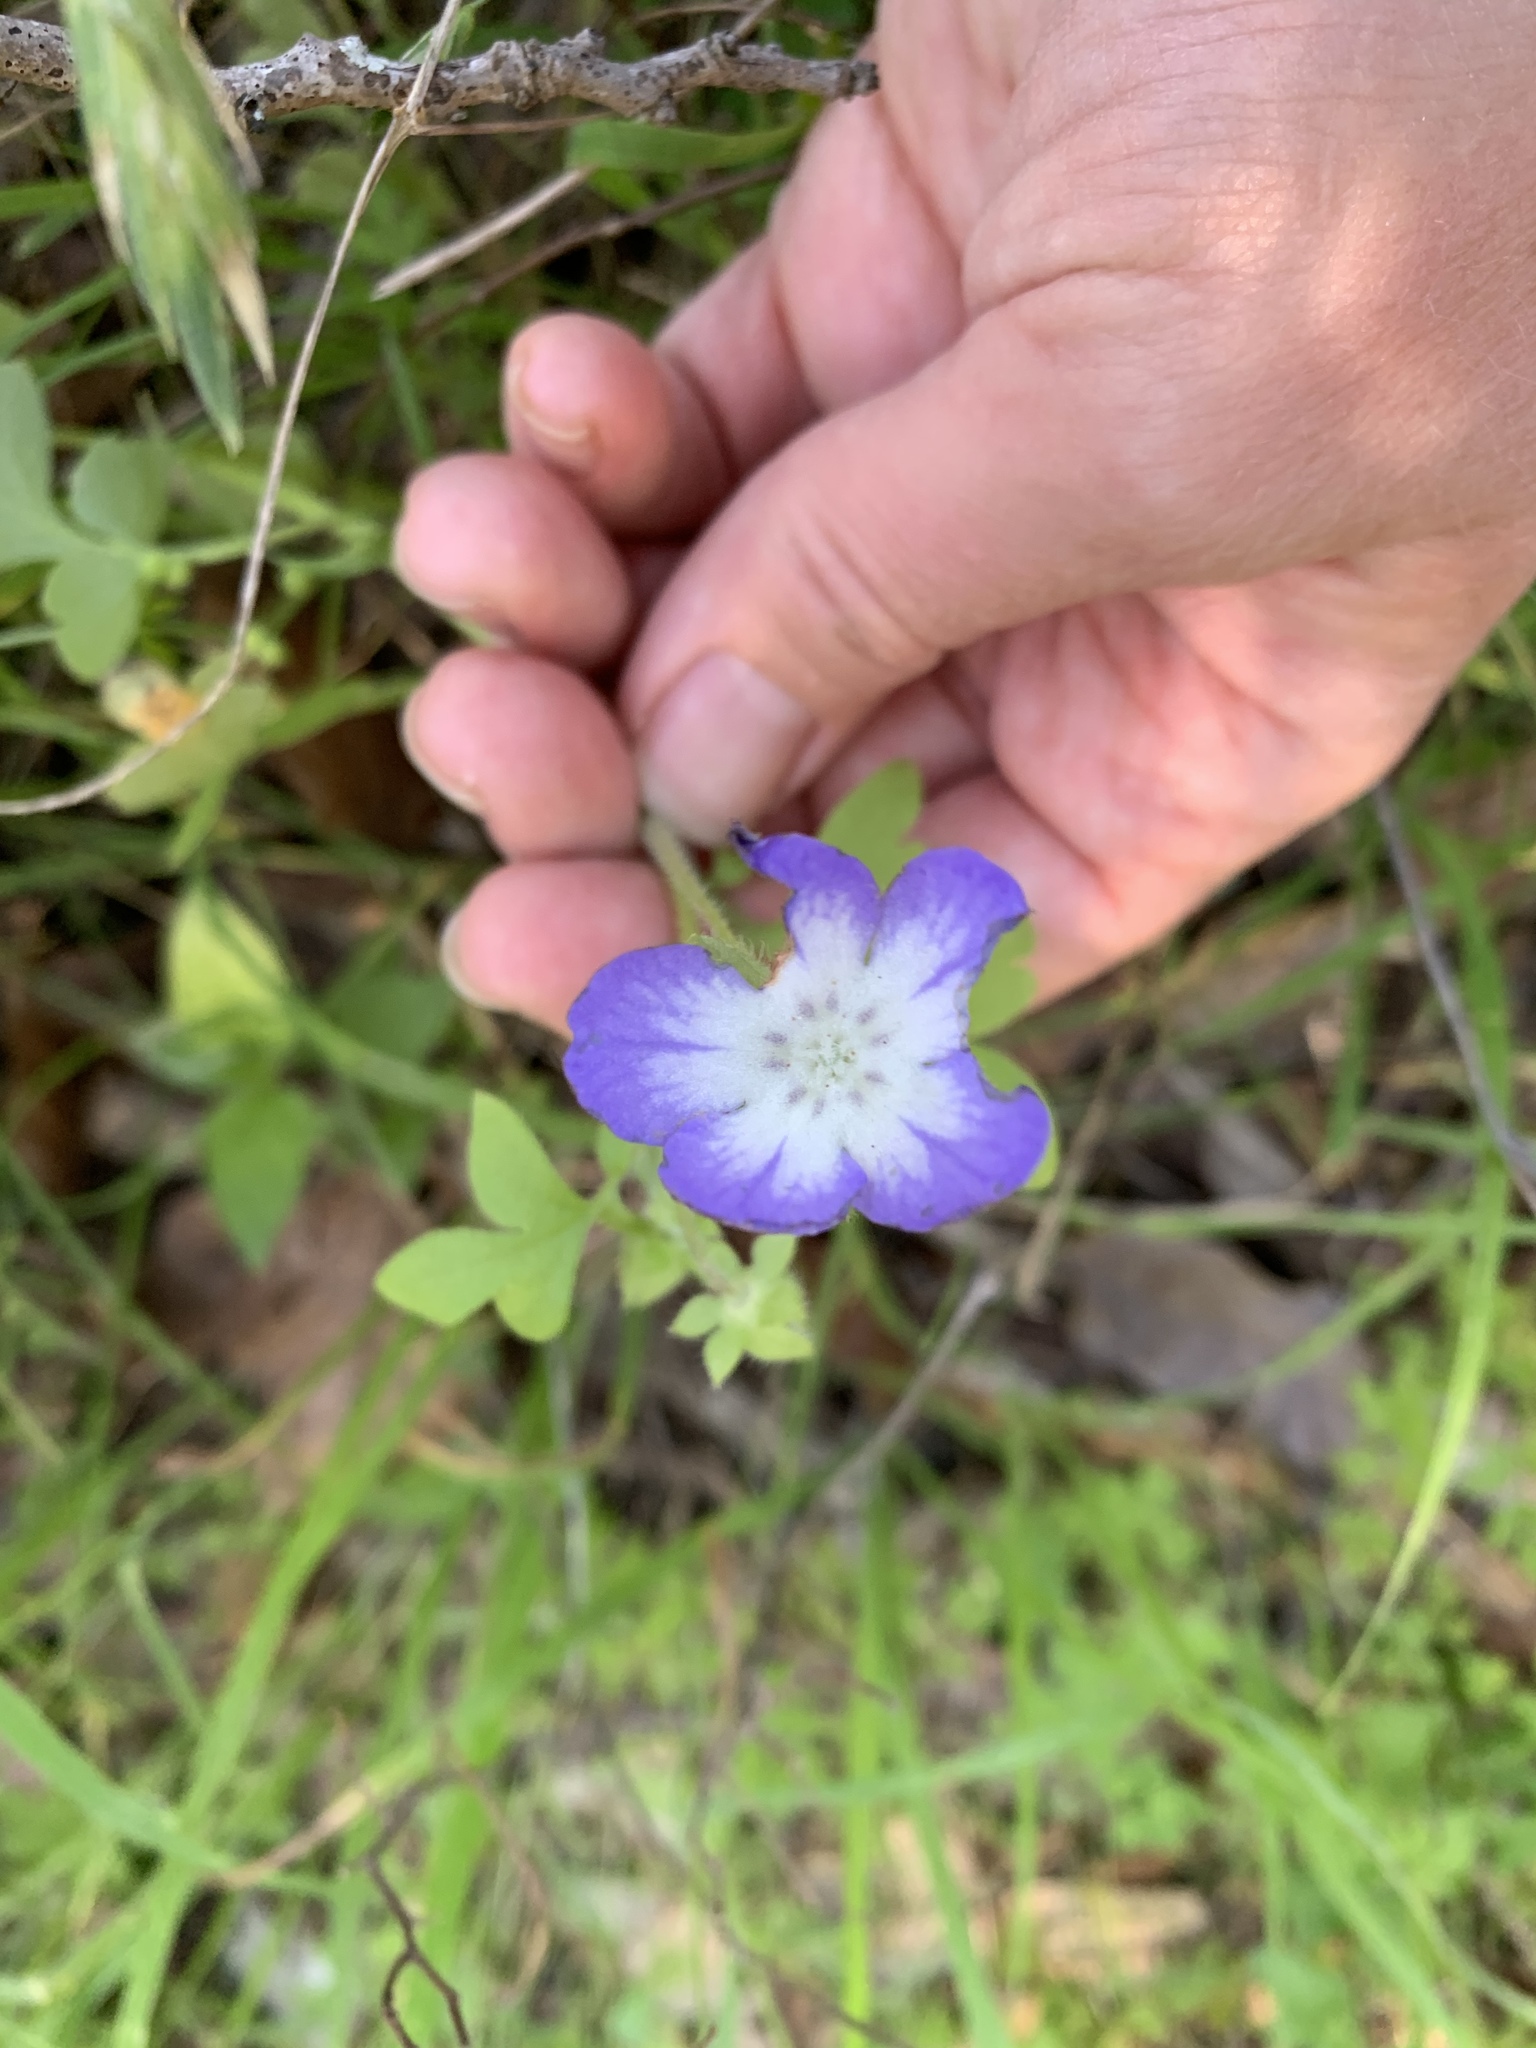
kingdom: Plantae
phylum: Tracheophyta
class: Magnoliopsida
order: Boraginales
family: Hydrophyllaceae
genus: Nemophila
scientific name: Nemophila phacelioides
